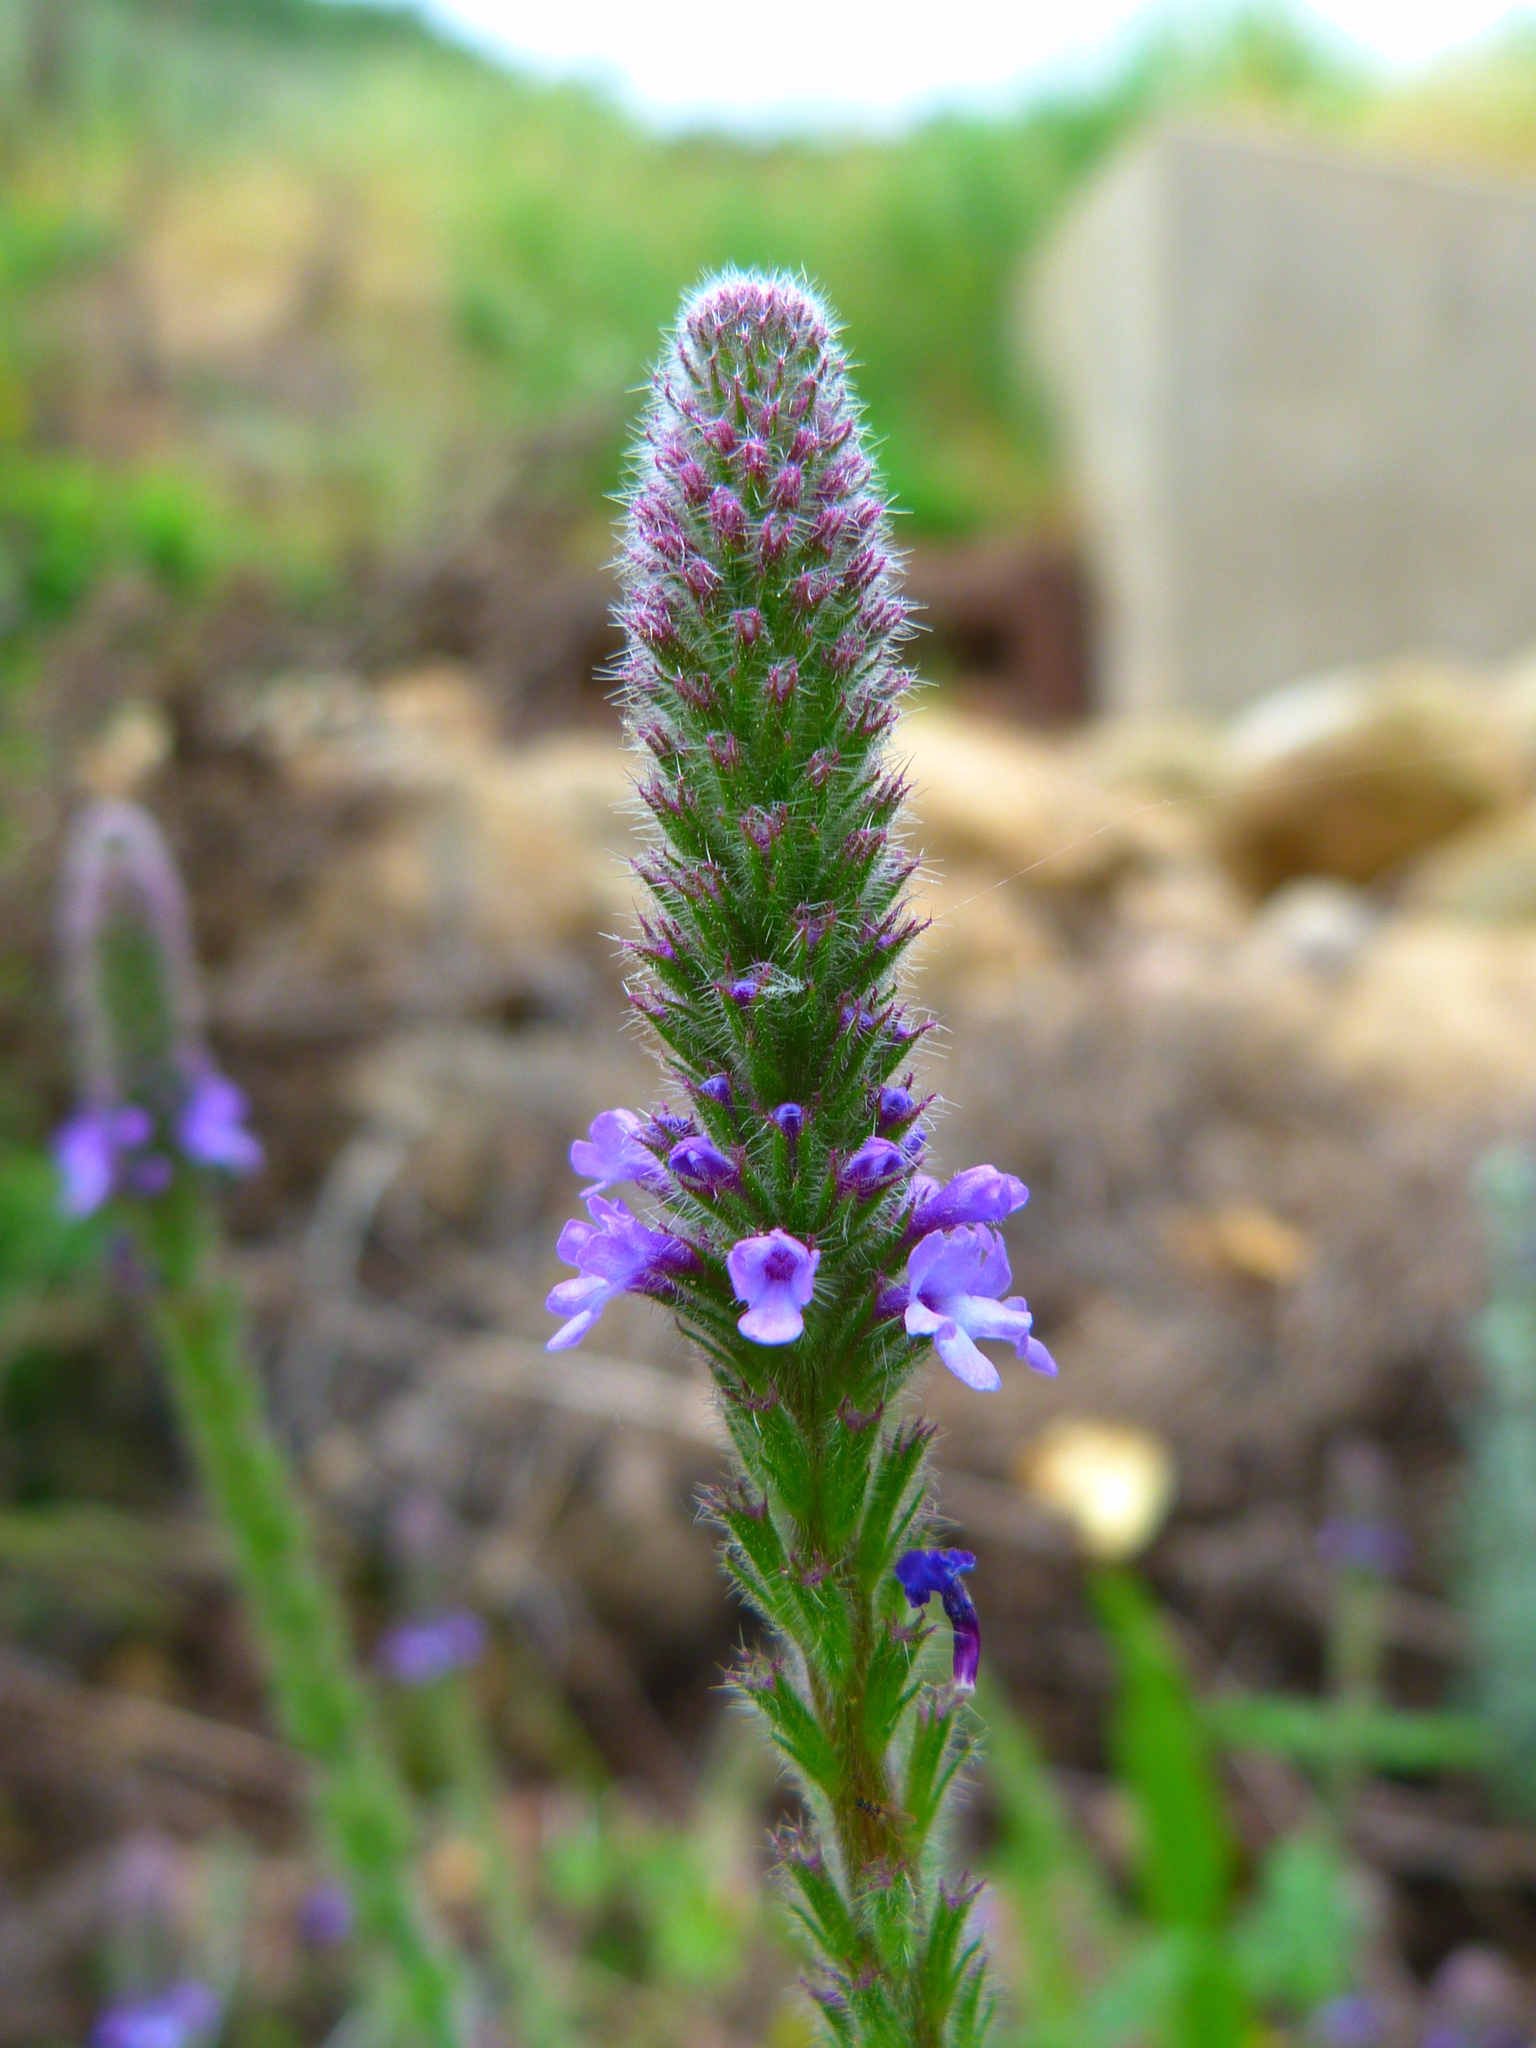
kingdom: Plantae
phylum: Tracheophyta
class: Magnoliopsida
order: Lamiales
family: Verbenaceae
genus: Verbena
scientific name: Verbena lasiostachys
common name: Vervain
